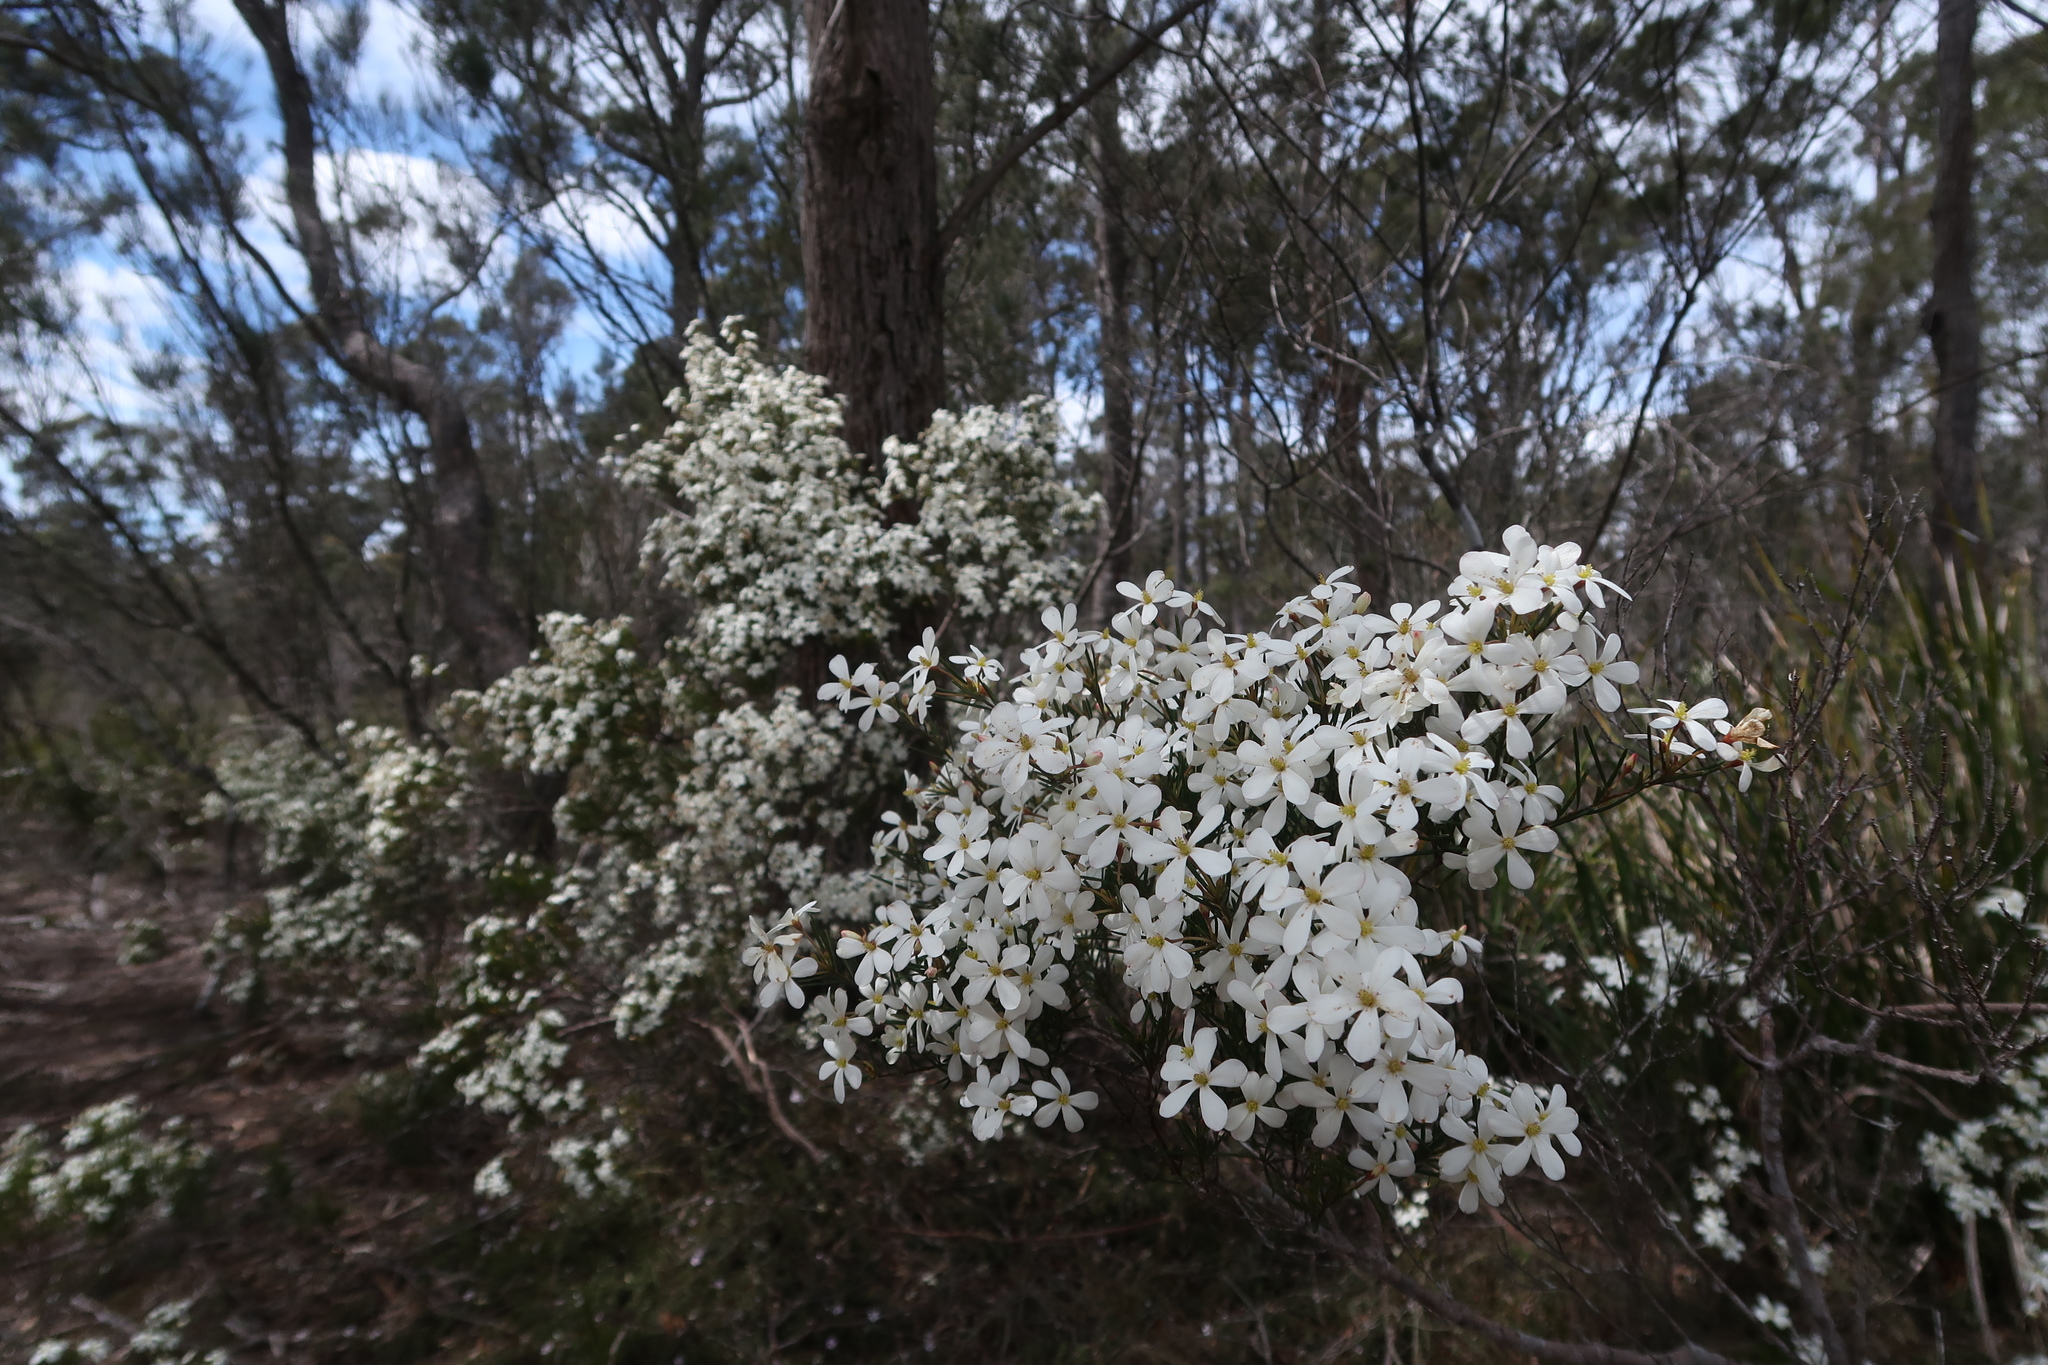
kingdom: Plantae
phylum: Tracheophyta
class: Magnoliopsida
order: Malpighiales
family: Euphorbiaceae
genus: Ricinocarpos
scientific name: Ricinocarpos pinifolius
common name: Weddingbush
